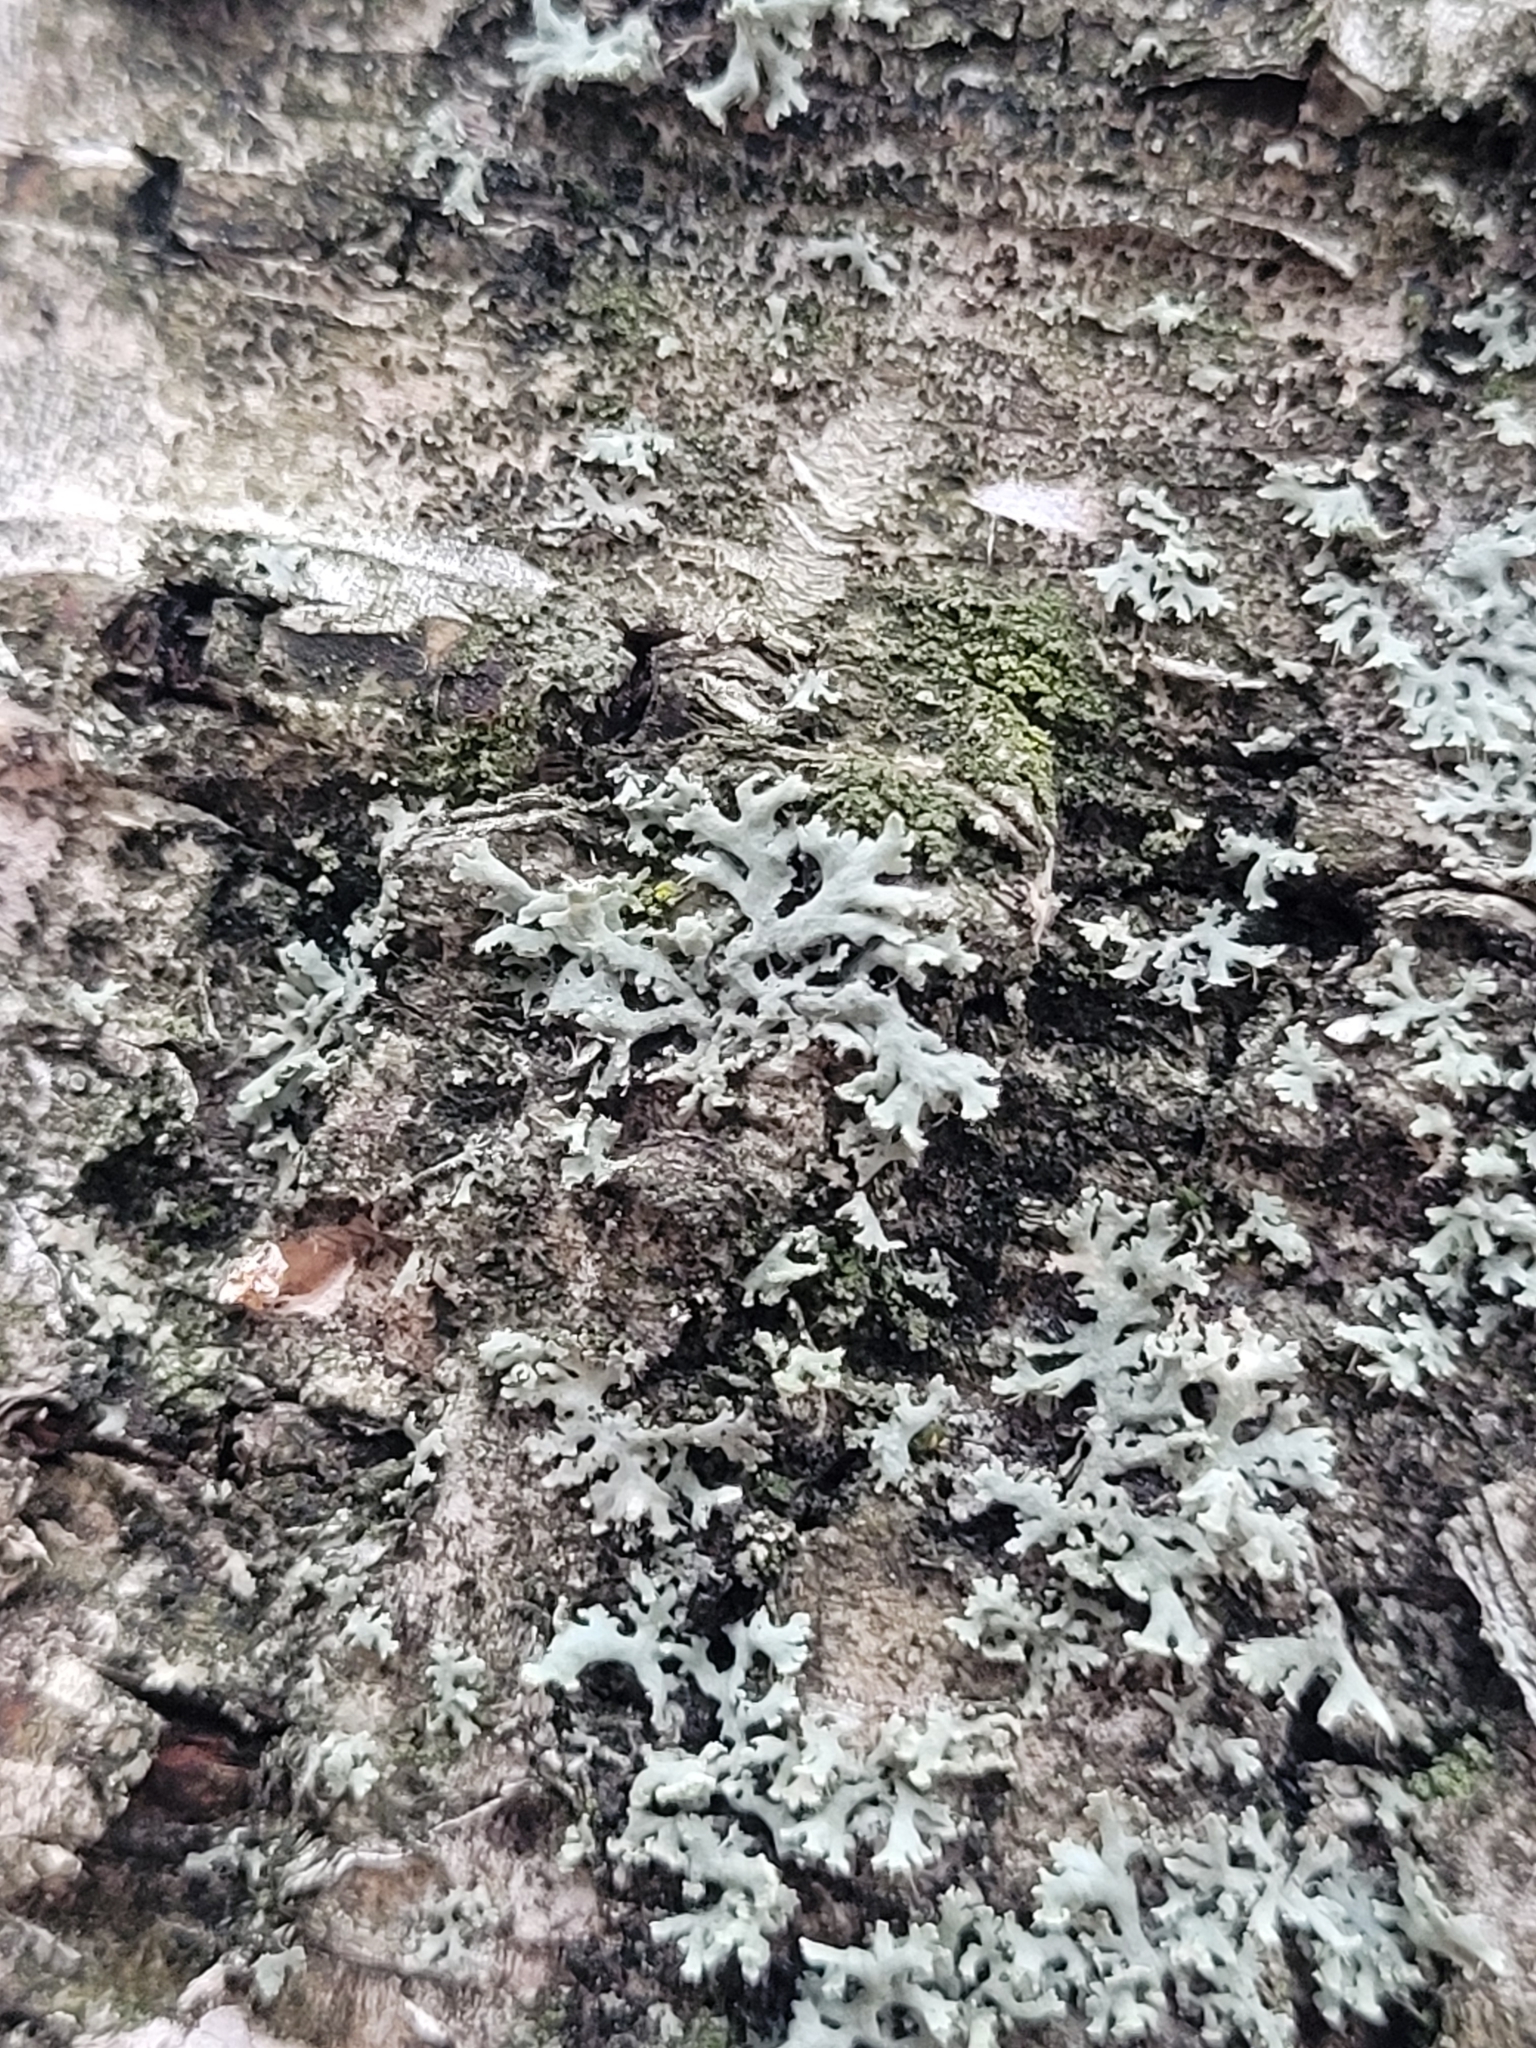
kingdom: Fungi
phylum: Ascomycota
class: Lecanoromycetes
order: Caliciales
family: Physciaceae
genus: Physcia
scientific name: Physcia tenella
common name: Fringed rosette lichen
